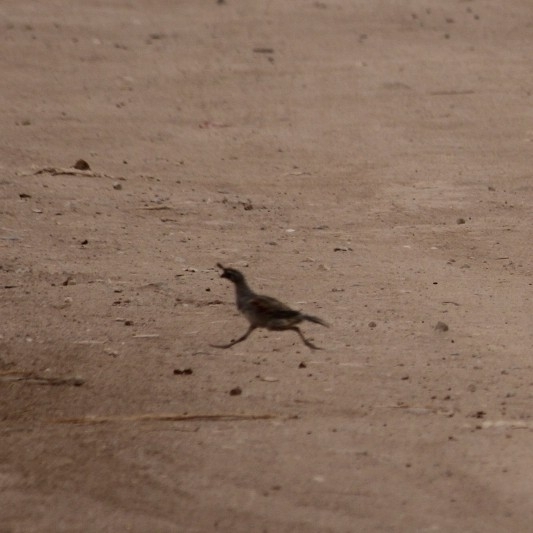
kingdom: Animalia
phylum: Chordata
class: Aves
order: Galliformes
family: Odontophoridae
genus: Callipepla
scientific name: Callipepla gambelii
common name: Gambel's quail
